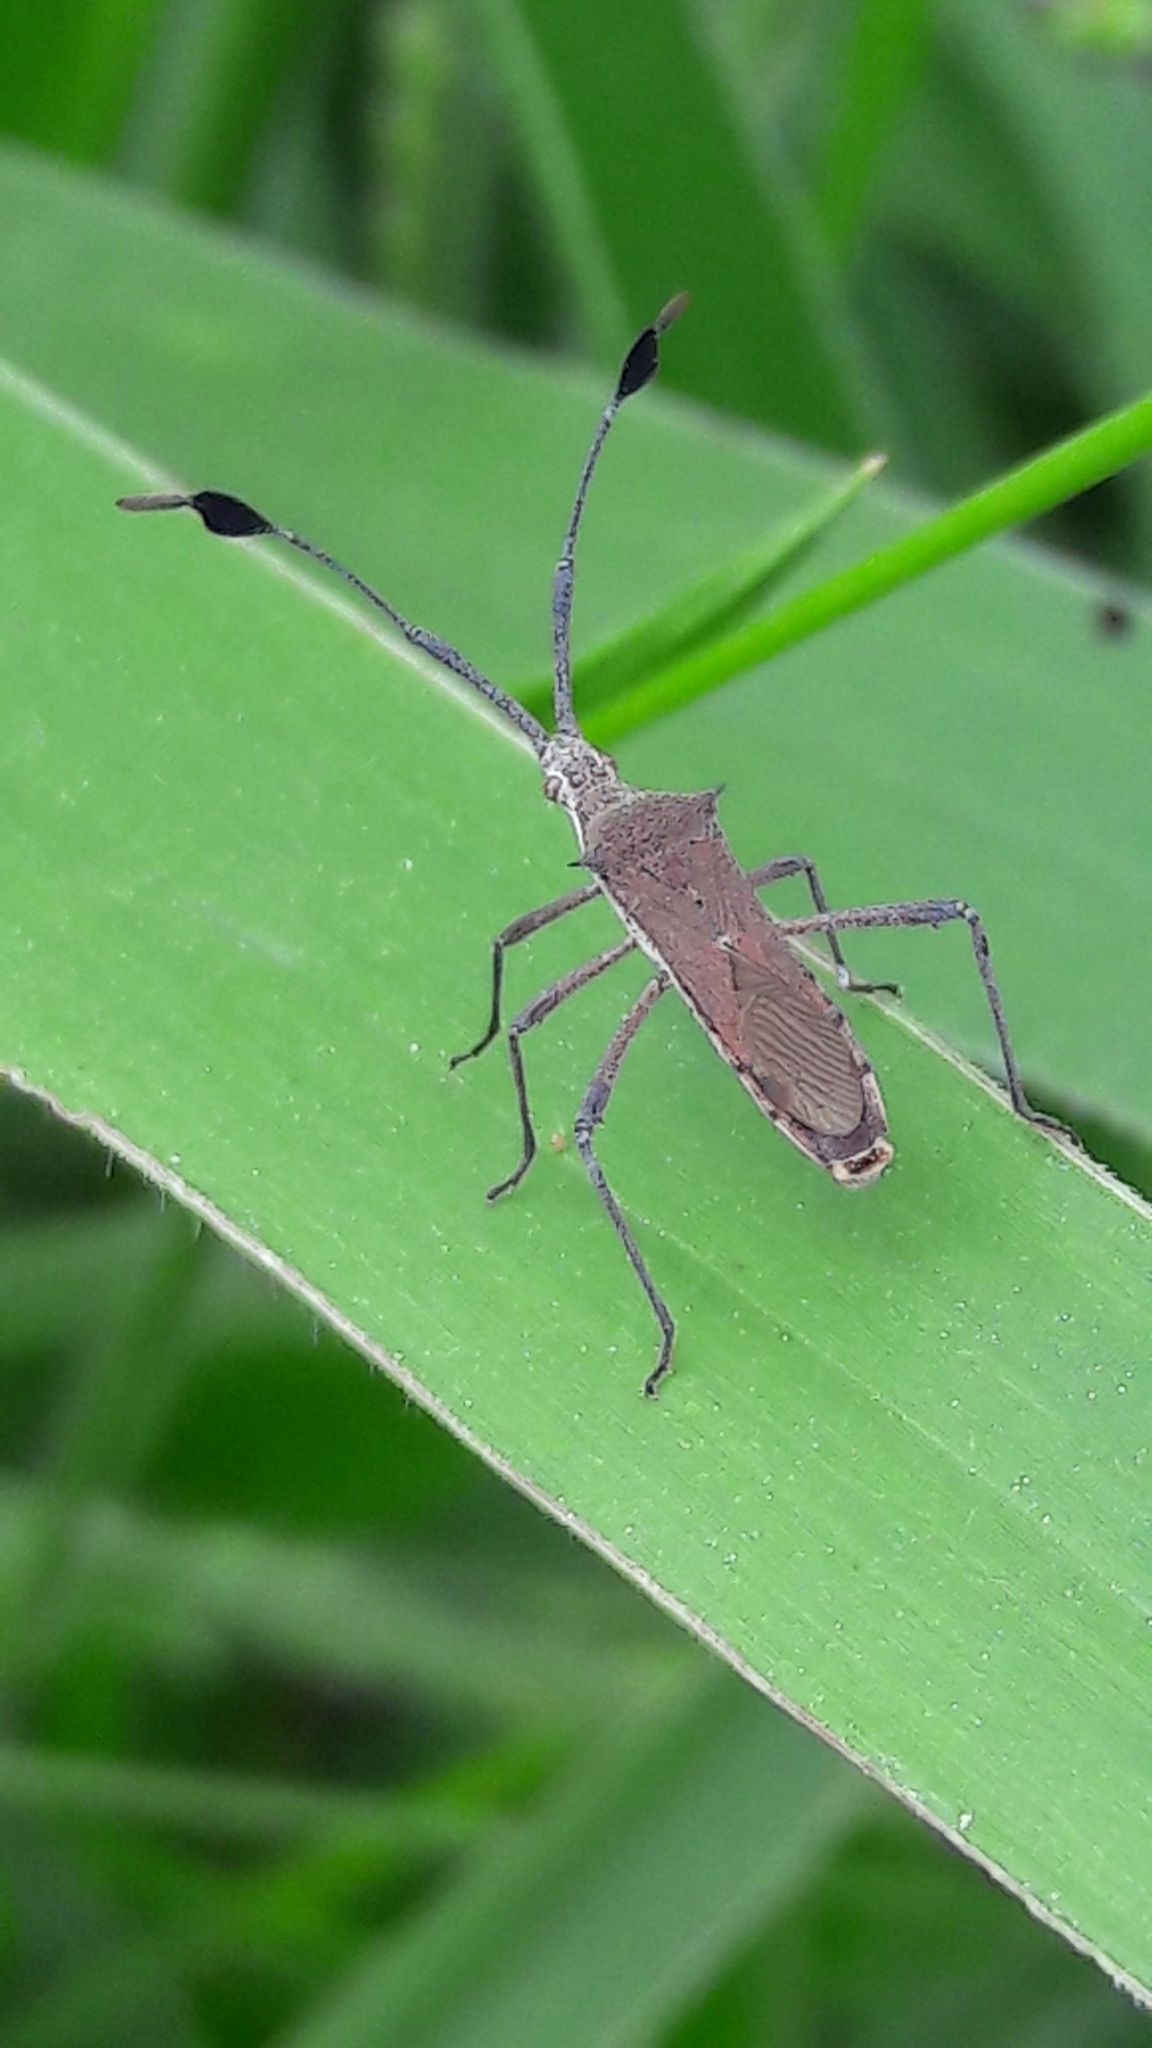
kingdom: Animalia
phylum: Arthropoda
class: Insecta
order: Hemiptera
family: Coreidae
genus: Chariesterus
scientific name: Chariesterus armatus
